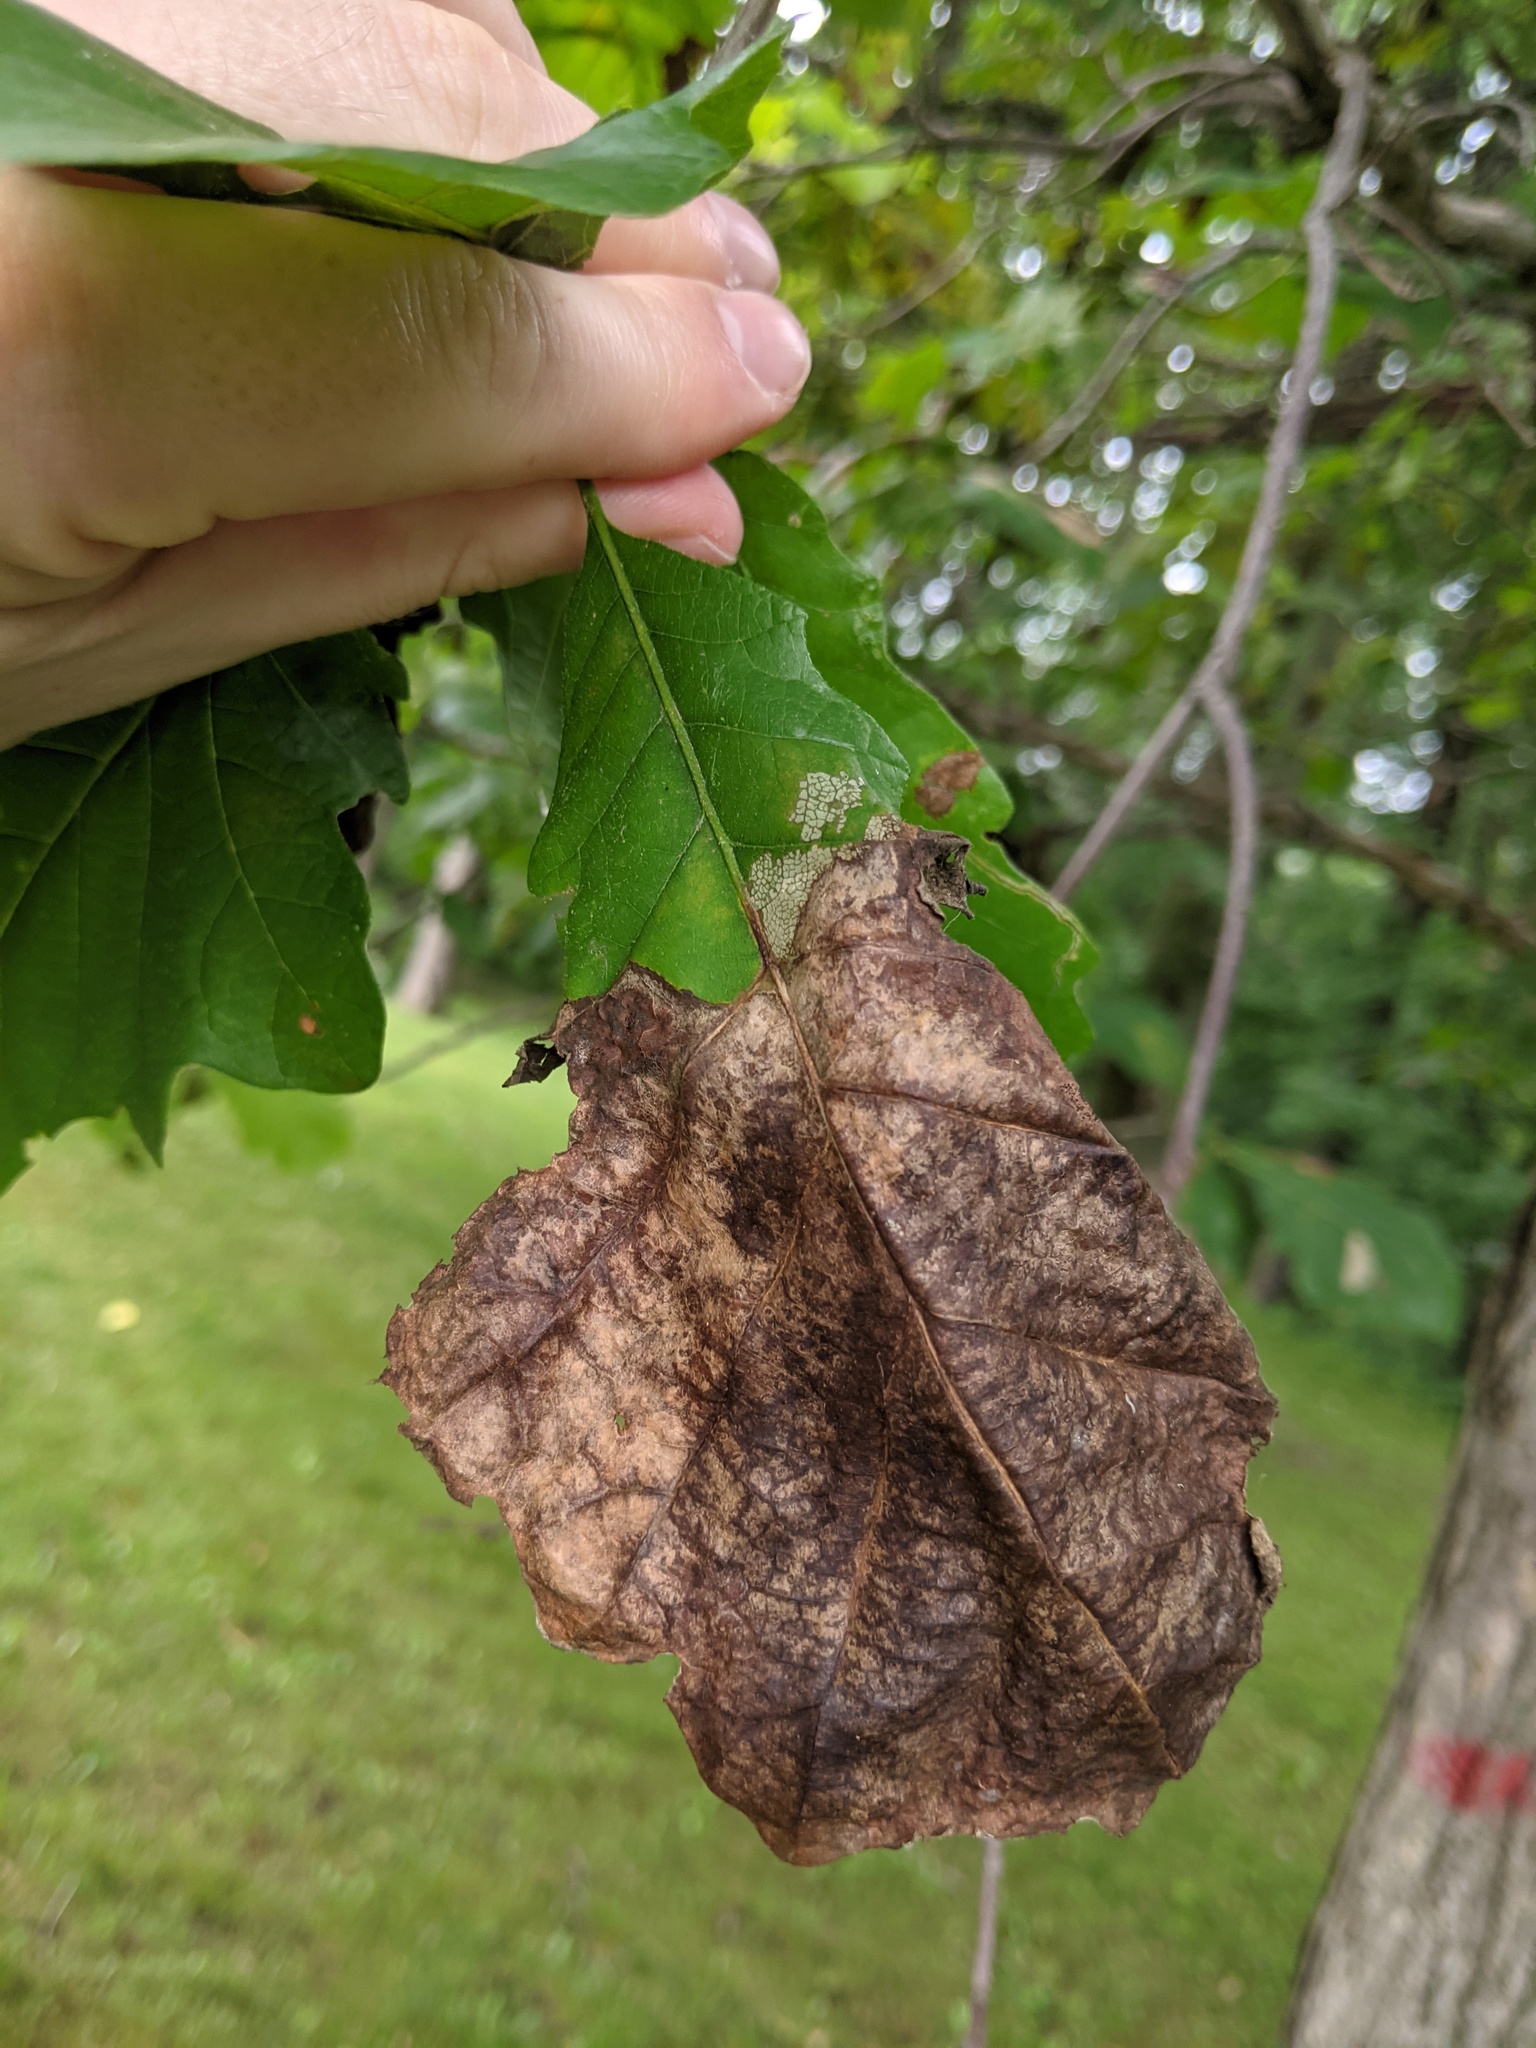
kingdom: Fungi
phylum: Ascomycota
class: Taphrinomycetes
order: Taphrinales
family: Taphrinaceae
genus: Taphrina
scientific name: Taphrina caerulescens
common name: Oak leaf blister
